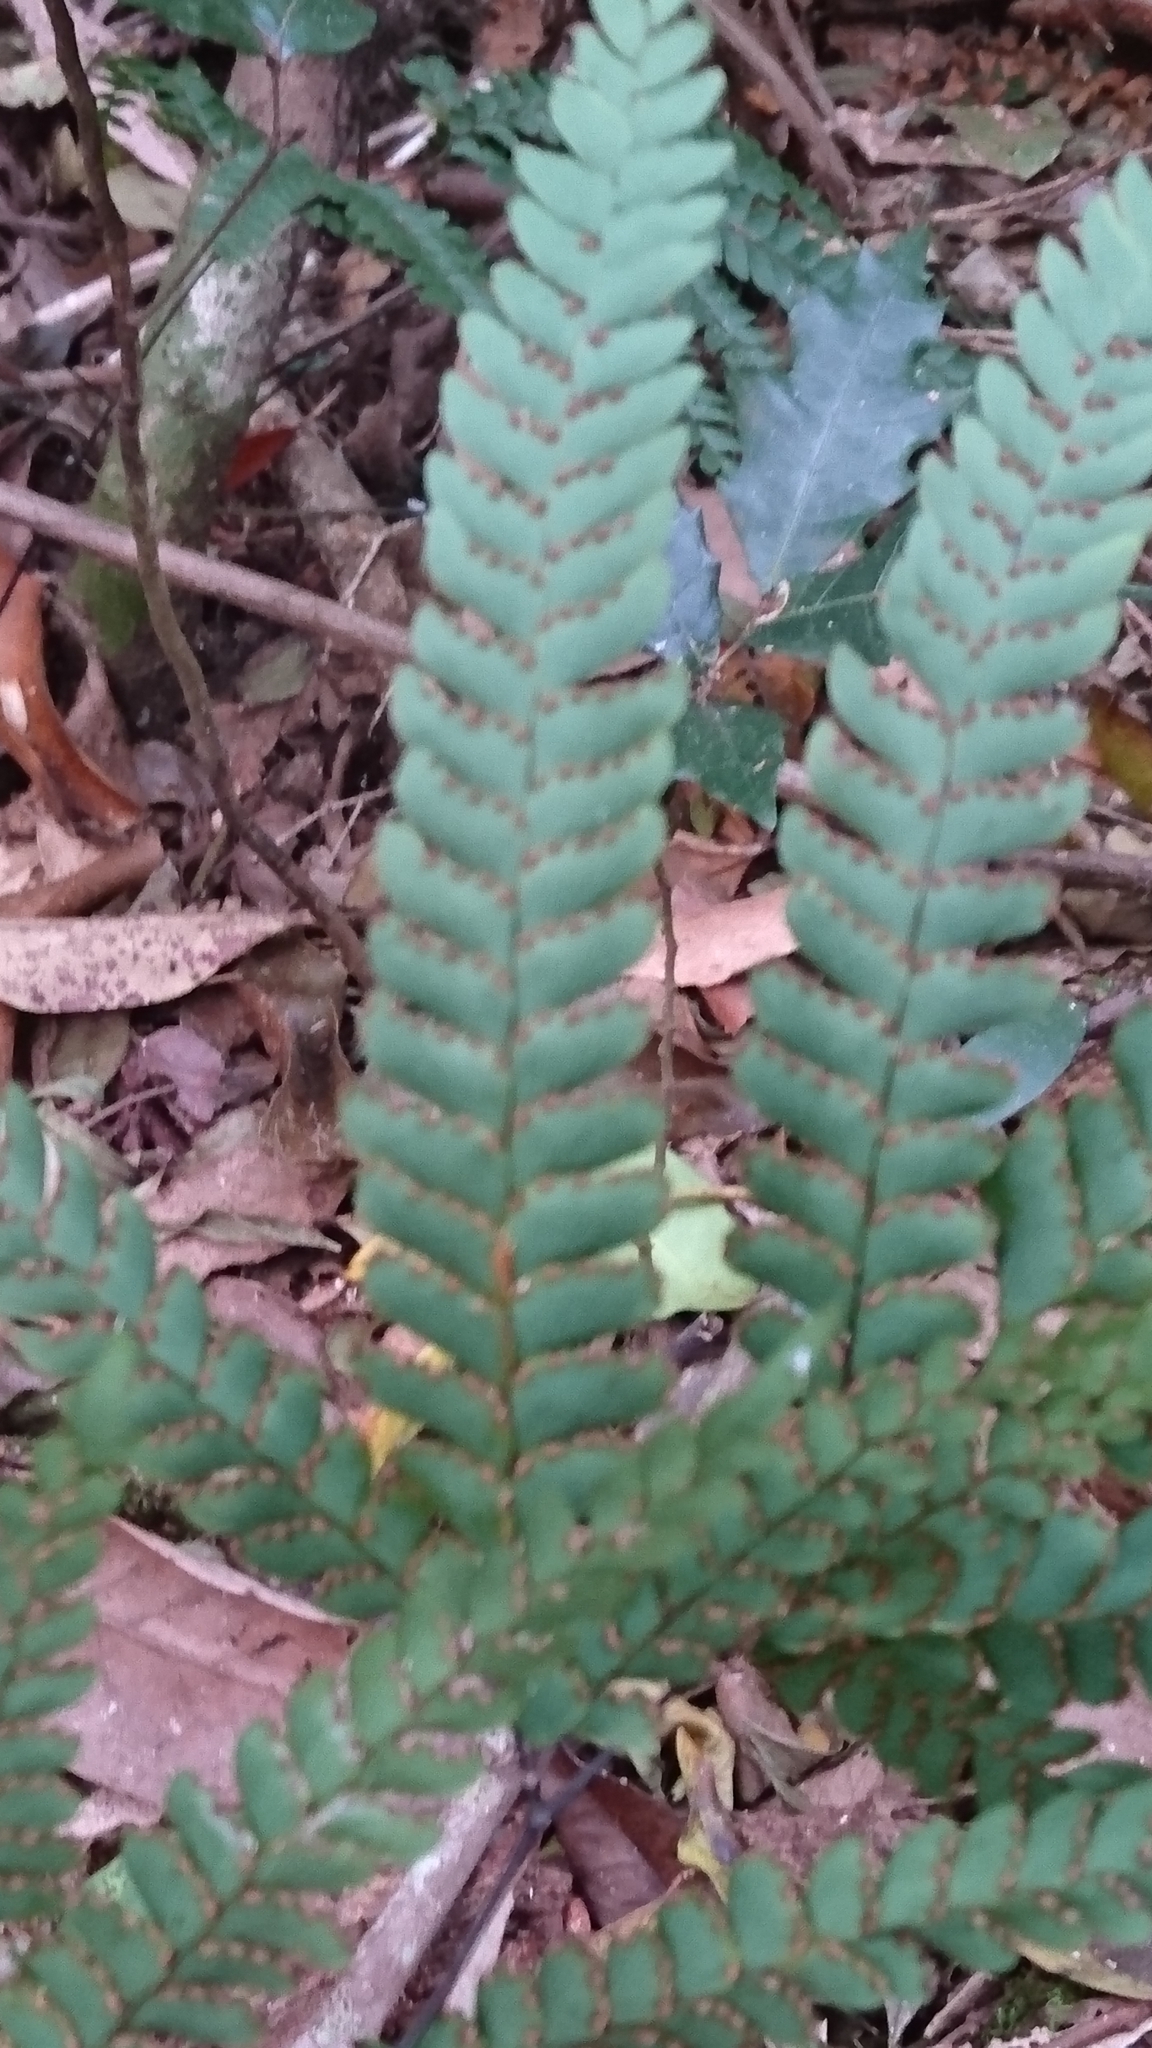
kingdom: Plantae
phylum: Tracheophyta
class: Polypodiopsida
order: Polypodiales
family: Pteridaceae
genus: Adiantum
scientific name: Adiantum silvaticum
